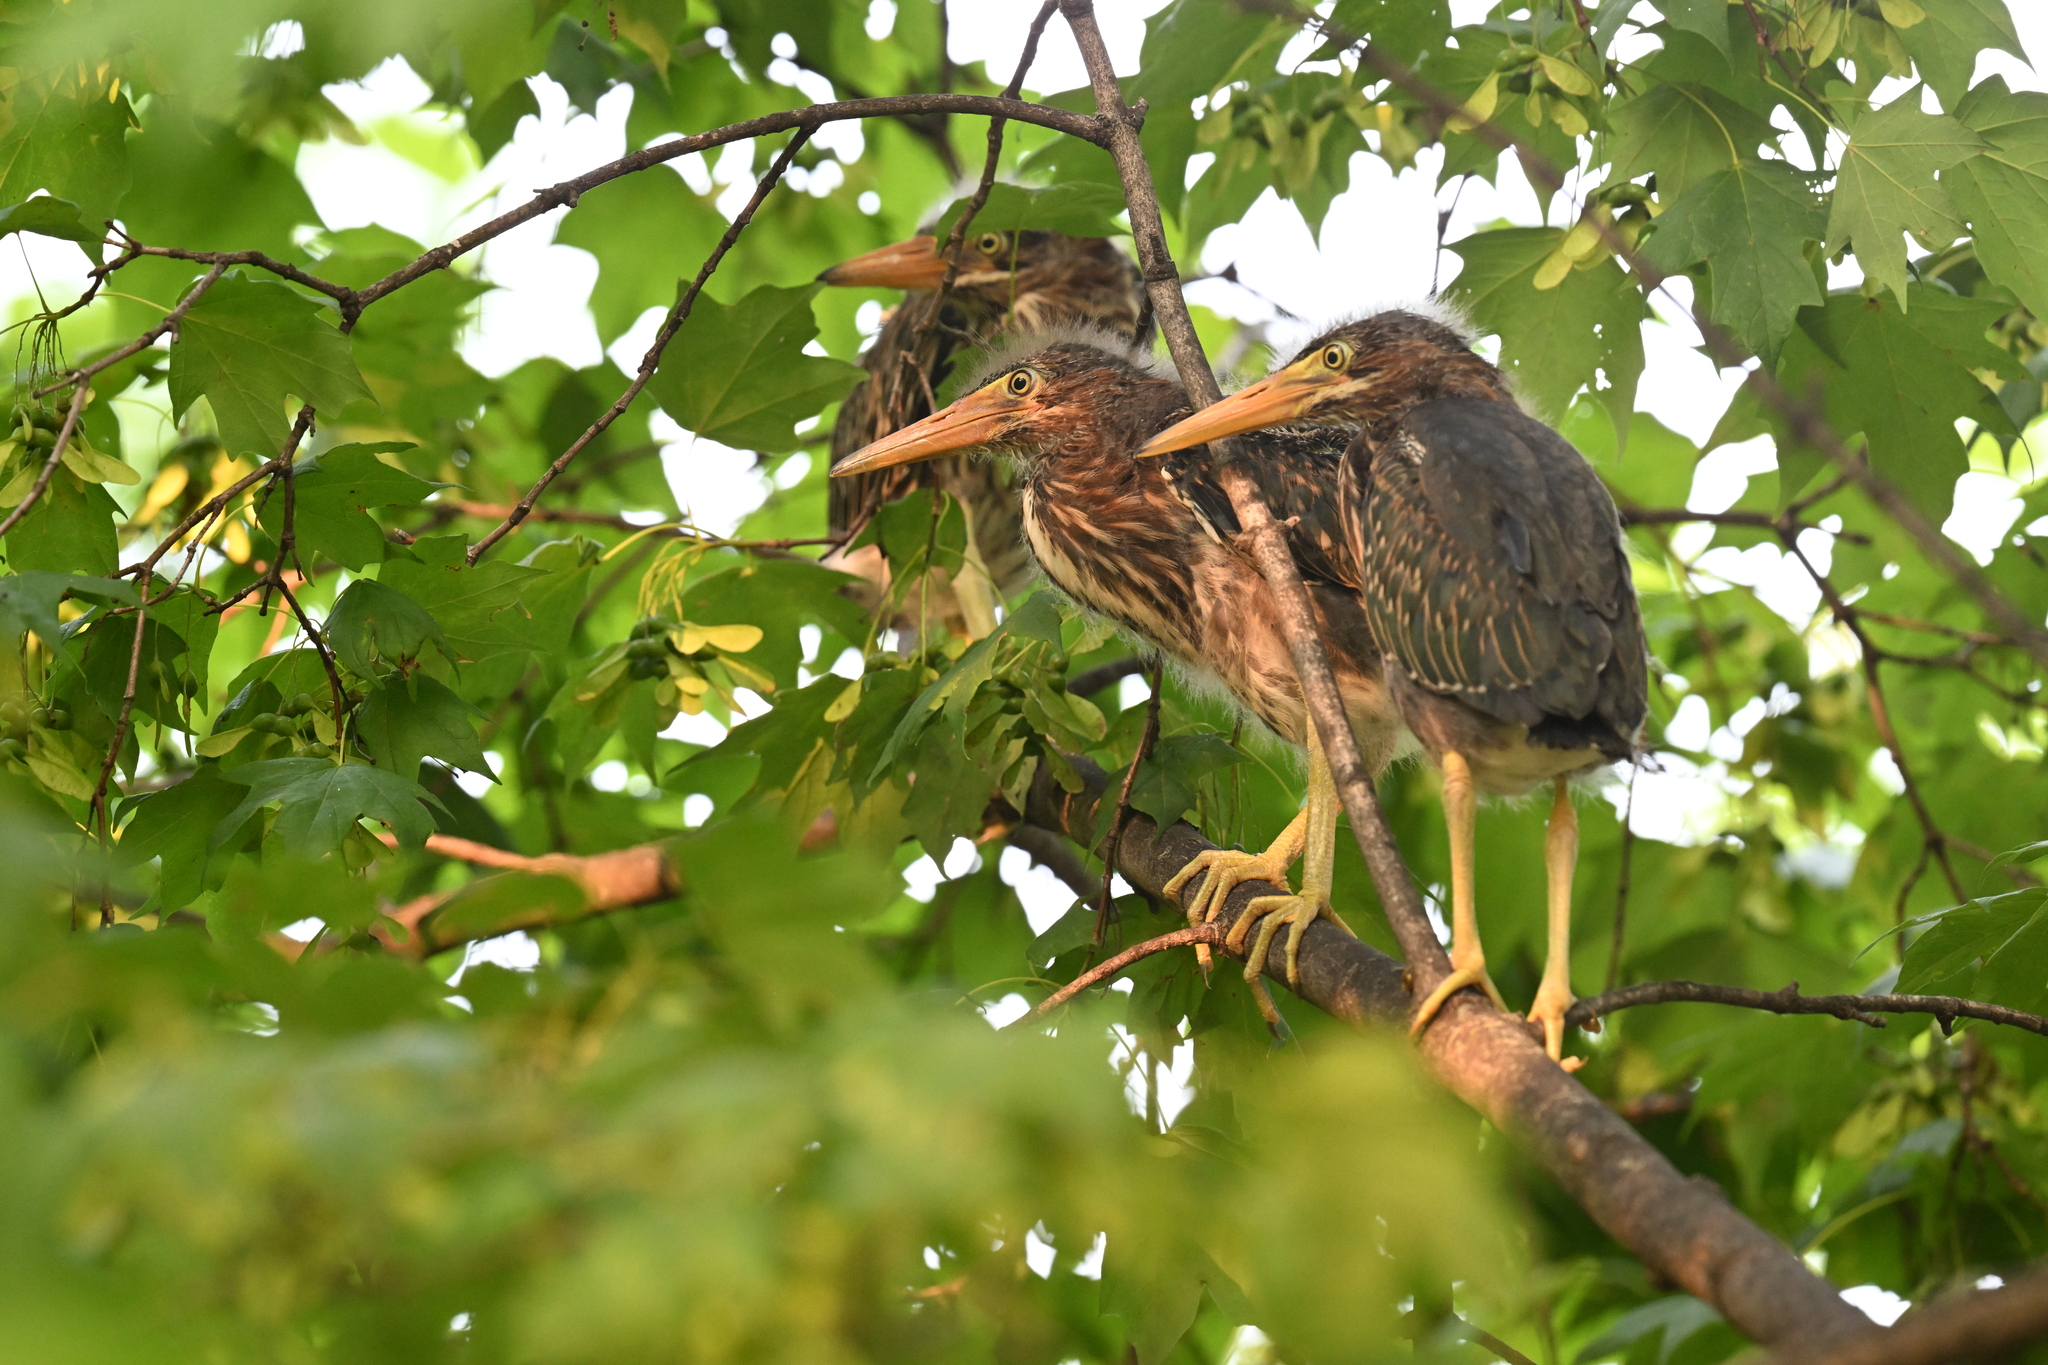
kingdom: Animalia
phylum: Chordata
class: Aves
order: Pelecaniformes
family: Ardeidae
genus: Butorides
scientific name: Butorides virescens
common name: Green heron
